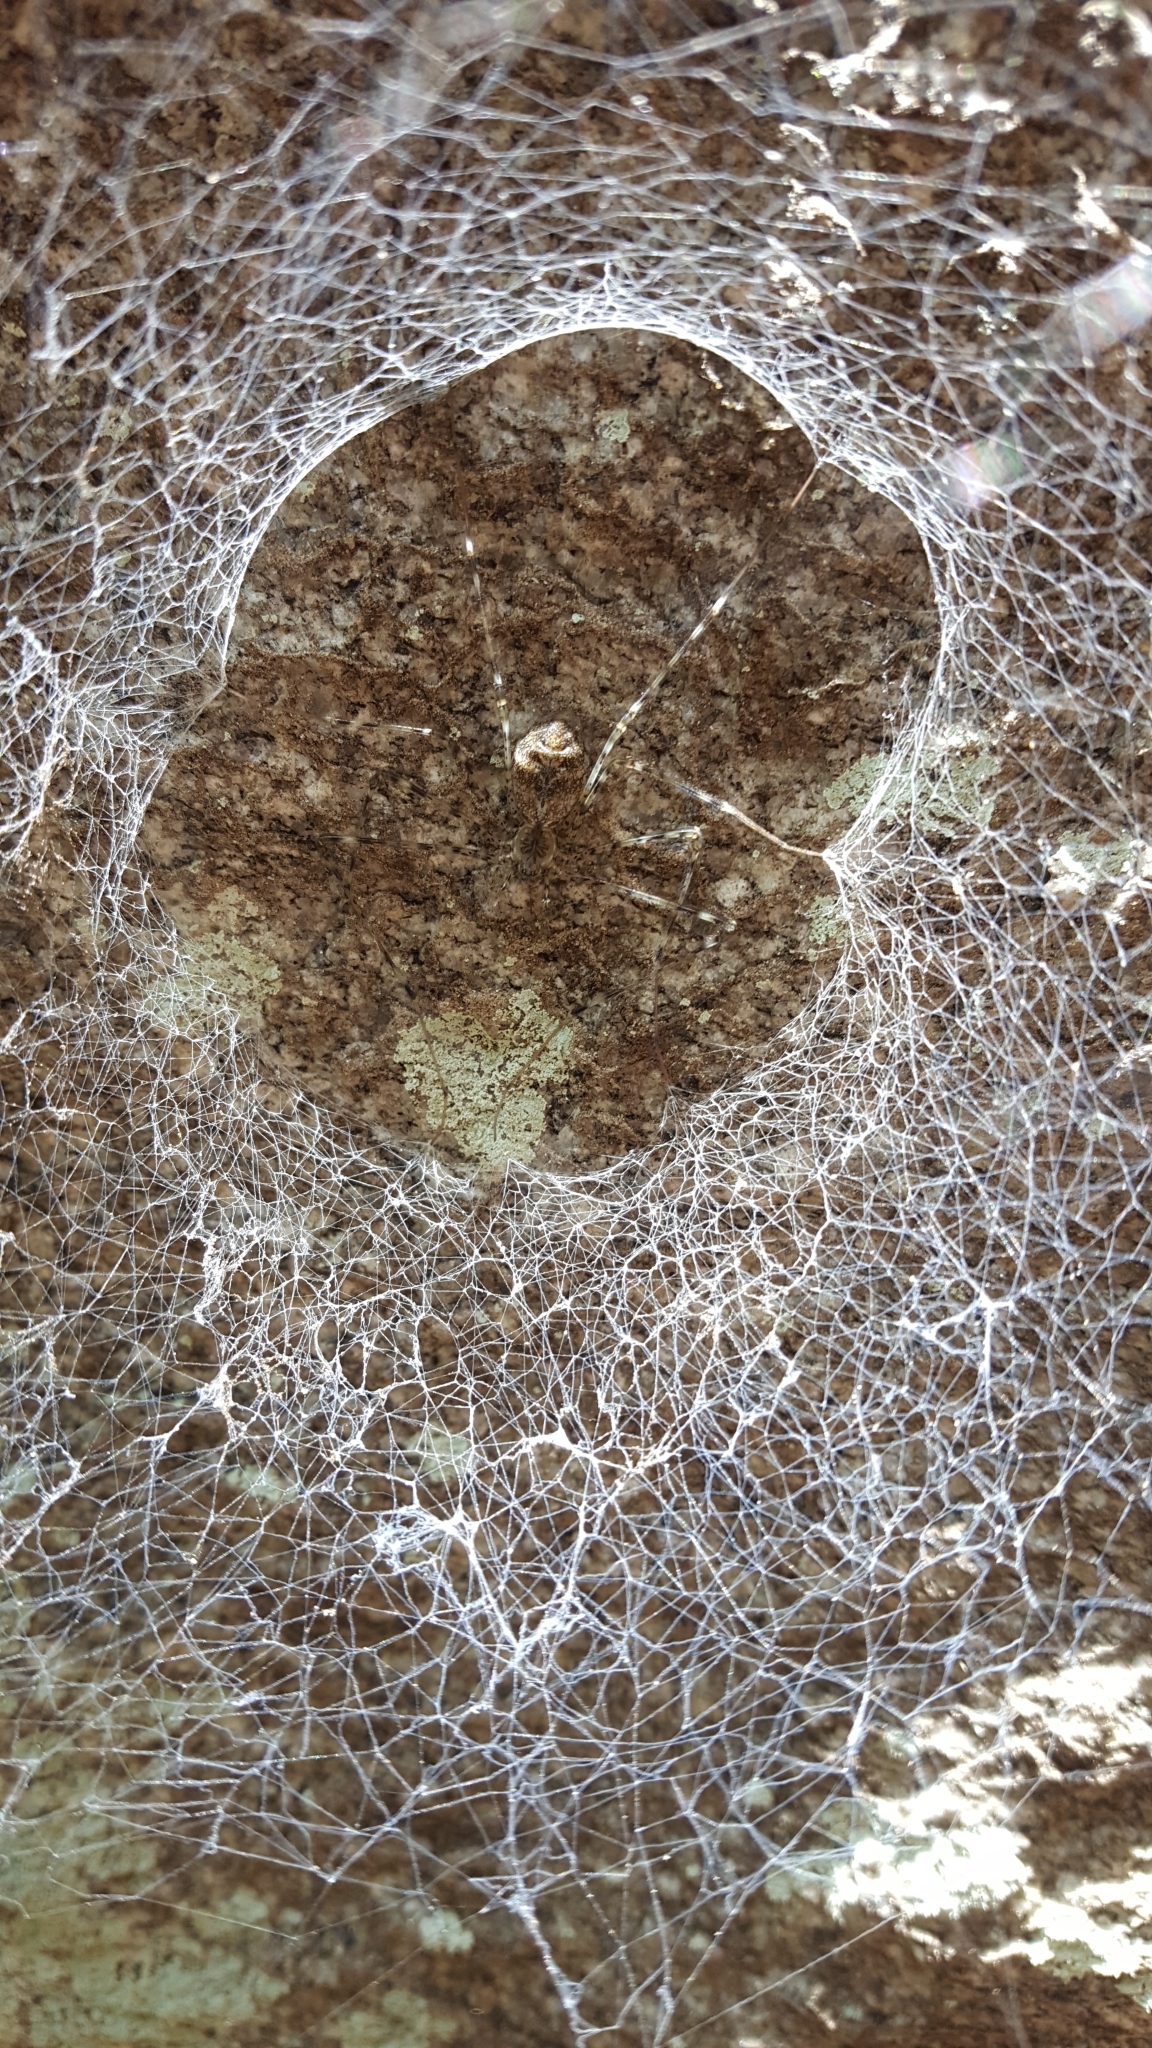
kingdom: Animalia
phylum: Arthropoda
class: Arachnida
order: Araneae
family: Hypochilidae
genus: Hypochilus
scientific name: Hypochilus pococki
